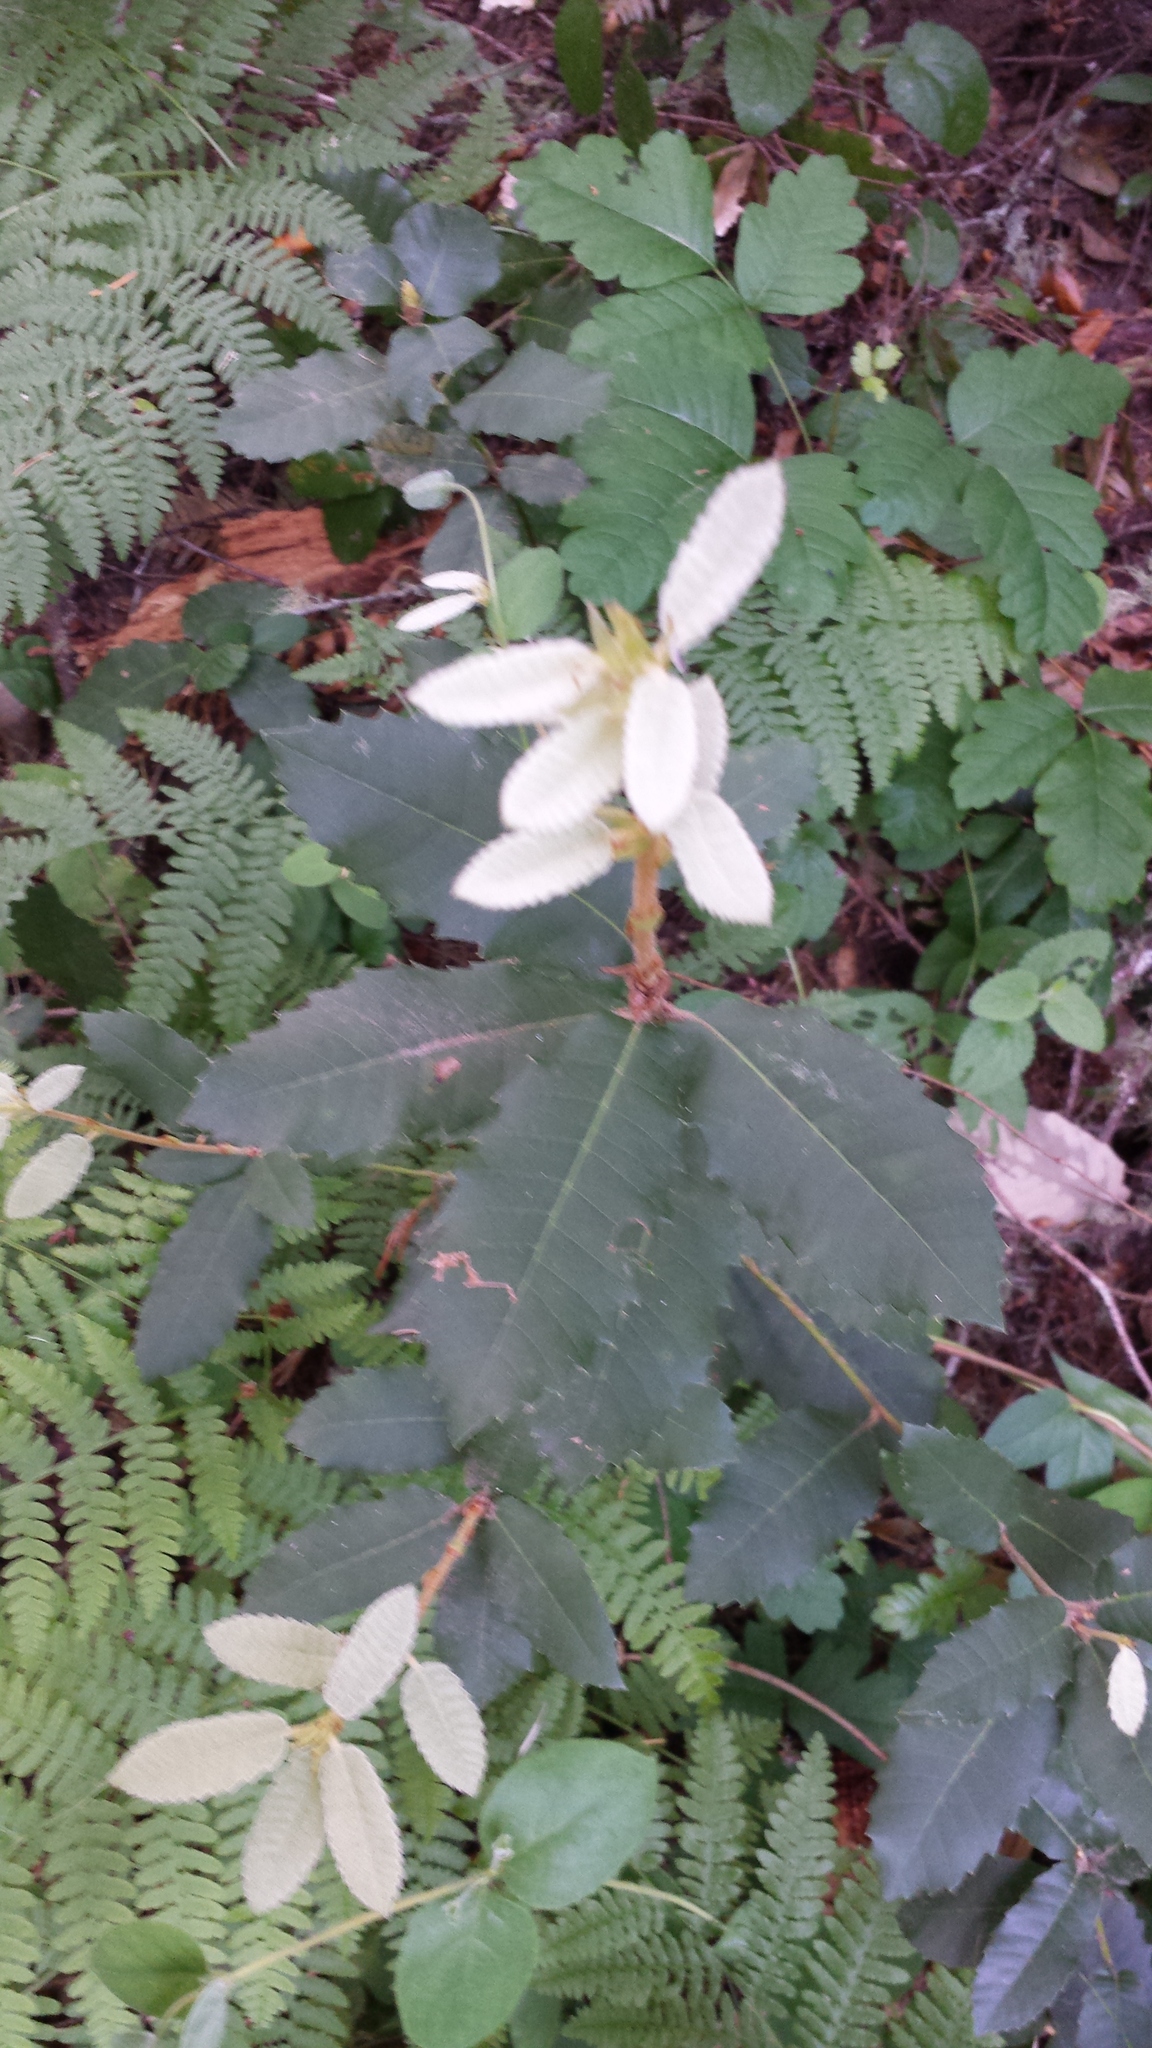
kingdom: Plantae
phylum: Tracheophyta
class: Magnoliopsida
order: Fagales
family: Fagaceae
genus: Notholithocarpus
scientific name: Notholithocarpus densiflorus
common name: Tan bark oak
